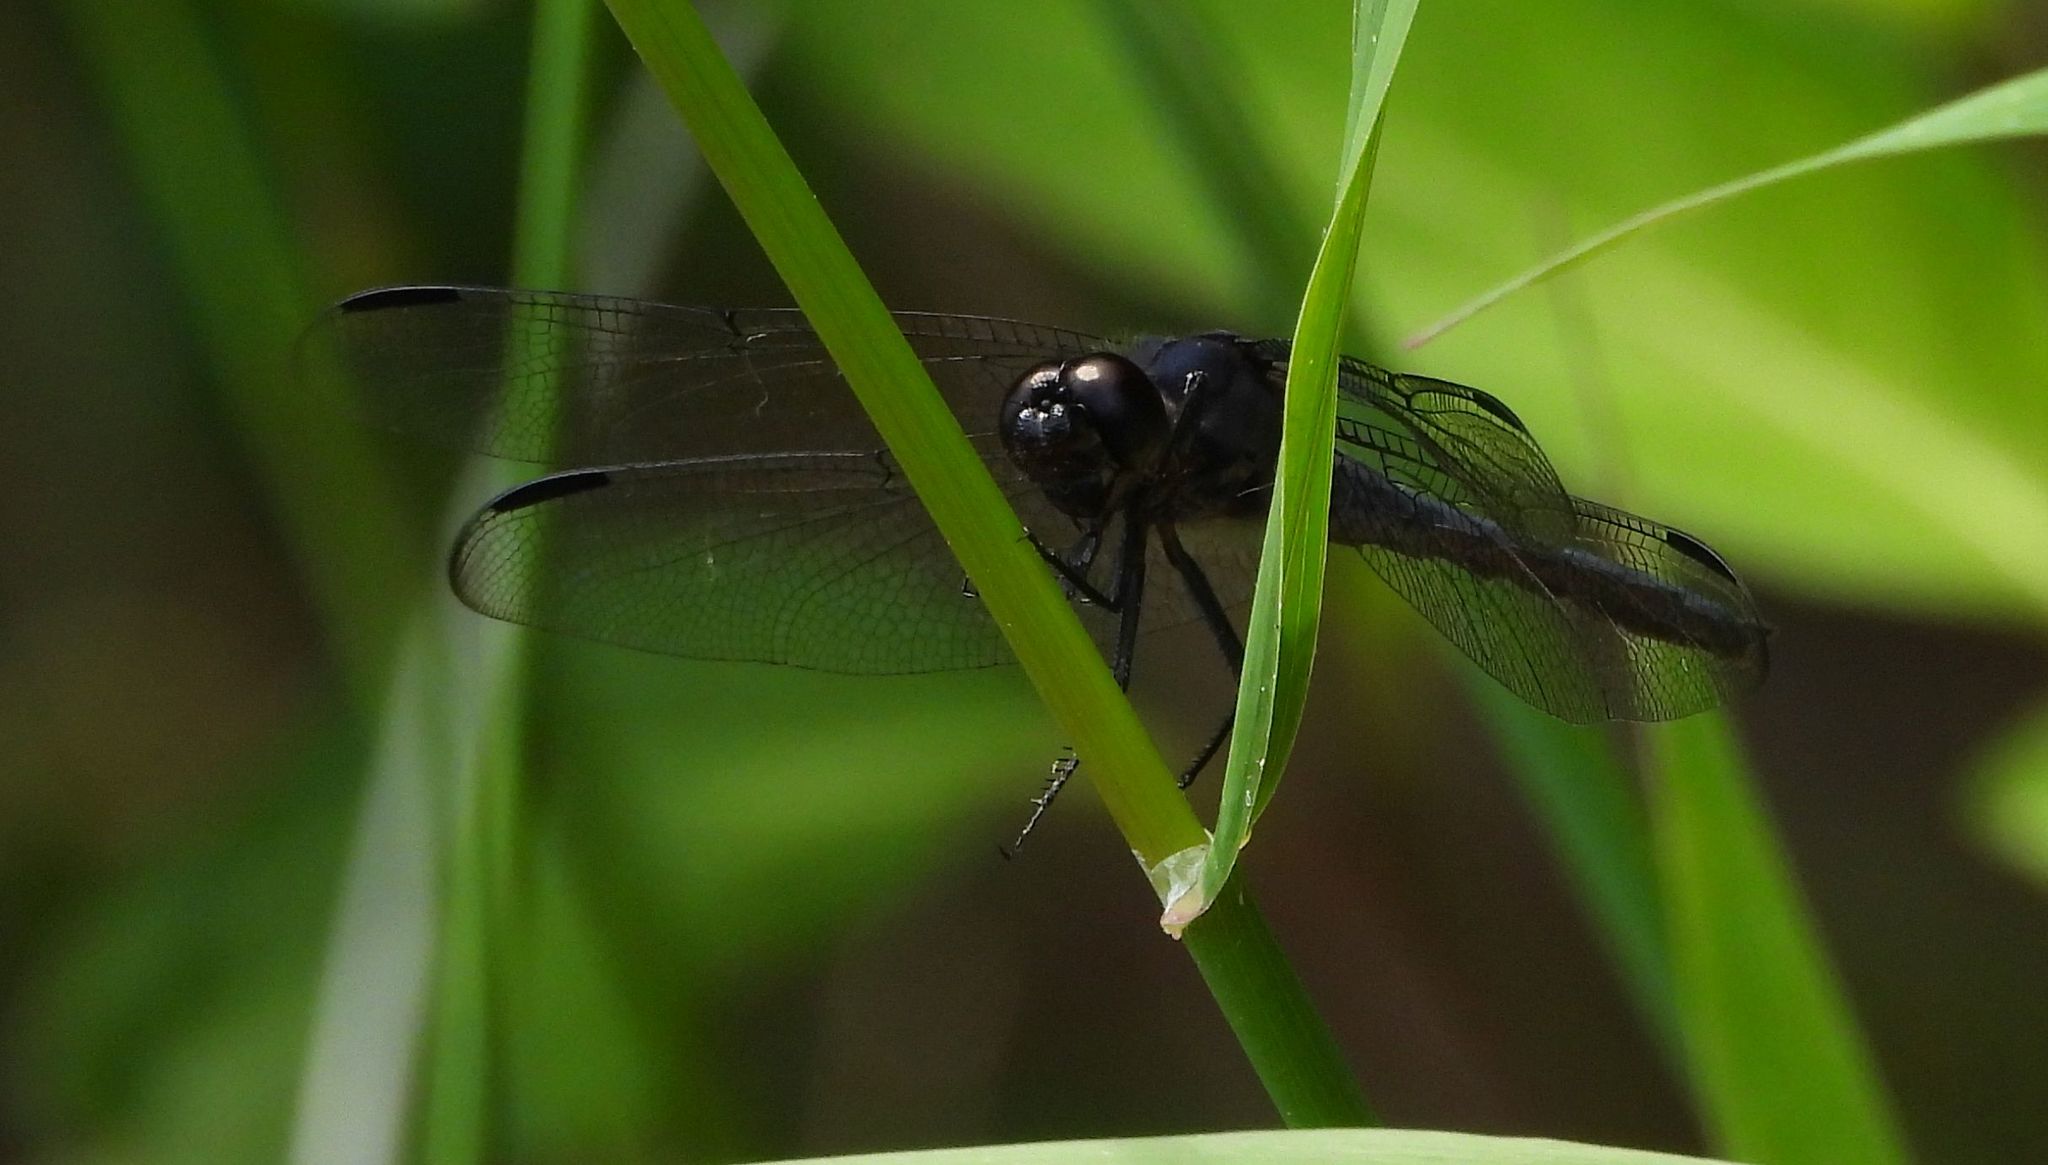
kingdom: Animalia
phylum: Arthropoda
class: Insecta
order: Odonata
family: Libellulidae
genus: Libellula
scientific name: Libellula incesta
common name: Slaty skimmer
